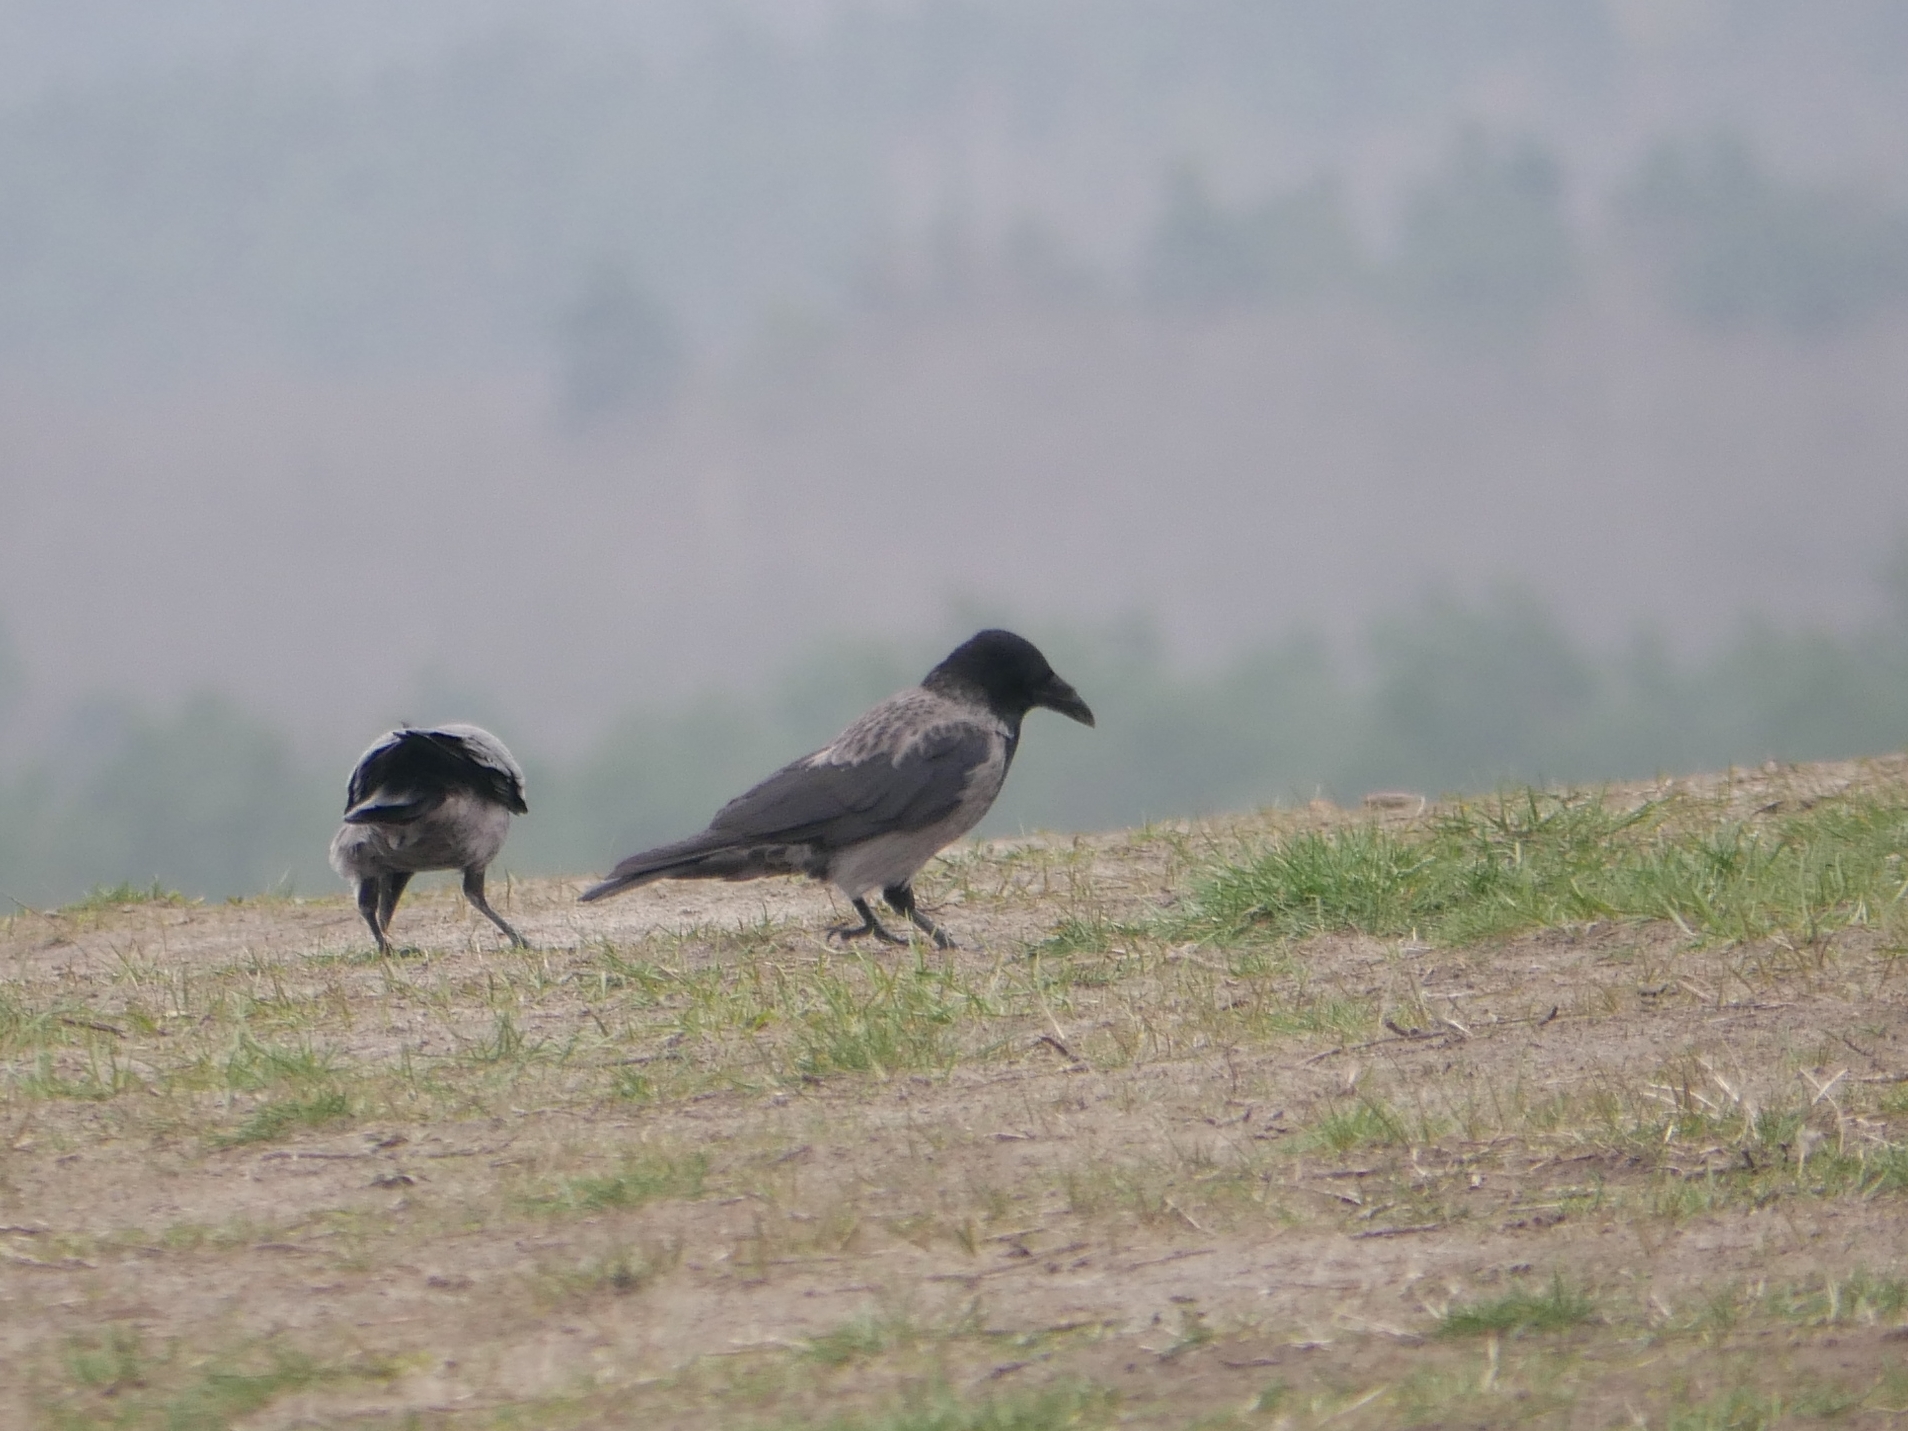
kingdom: Animalia
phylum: Chordata
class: Aves
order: Passeriformes
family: Corvidae
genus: Corvus
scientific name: Corvus
